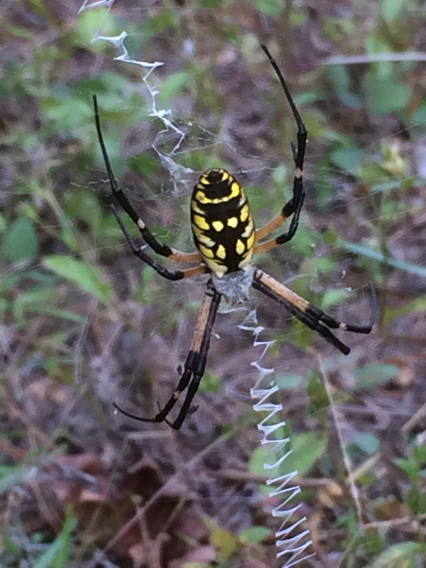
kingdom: Animalia
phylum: Arthropoda
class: Arachnida
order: Araneae
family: Araneidae
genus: Argiope
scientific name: Argiope aurantia
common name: Orb weavers
